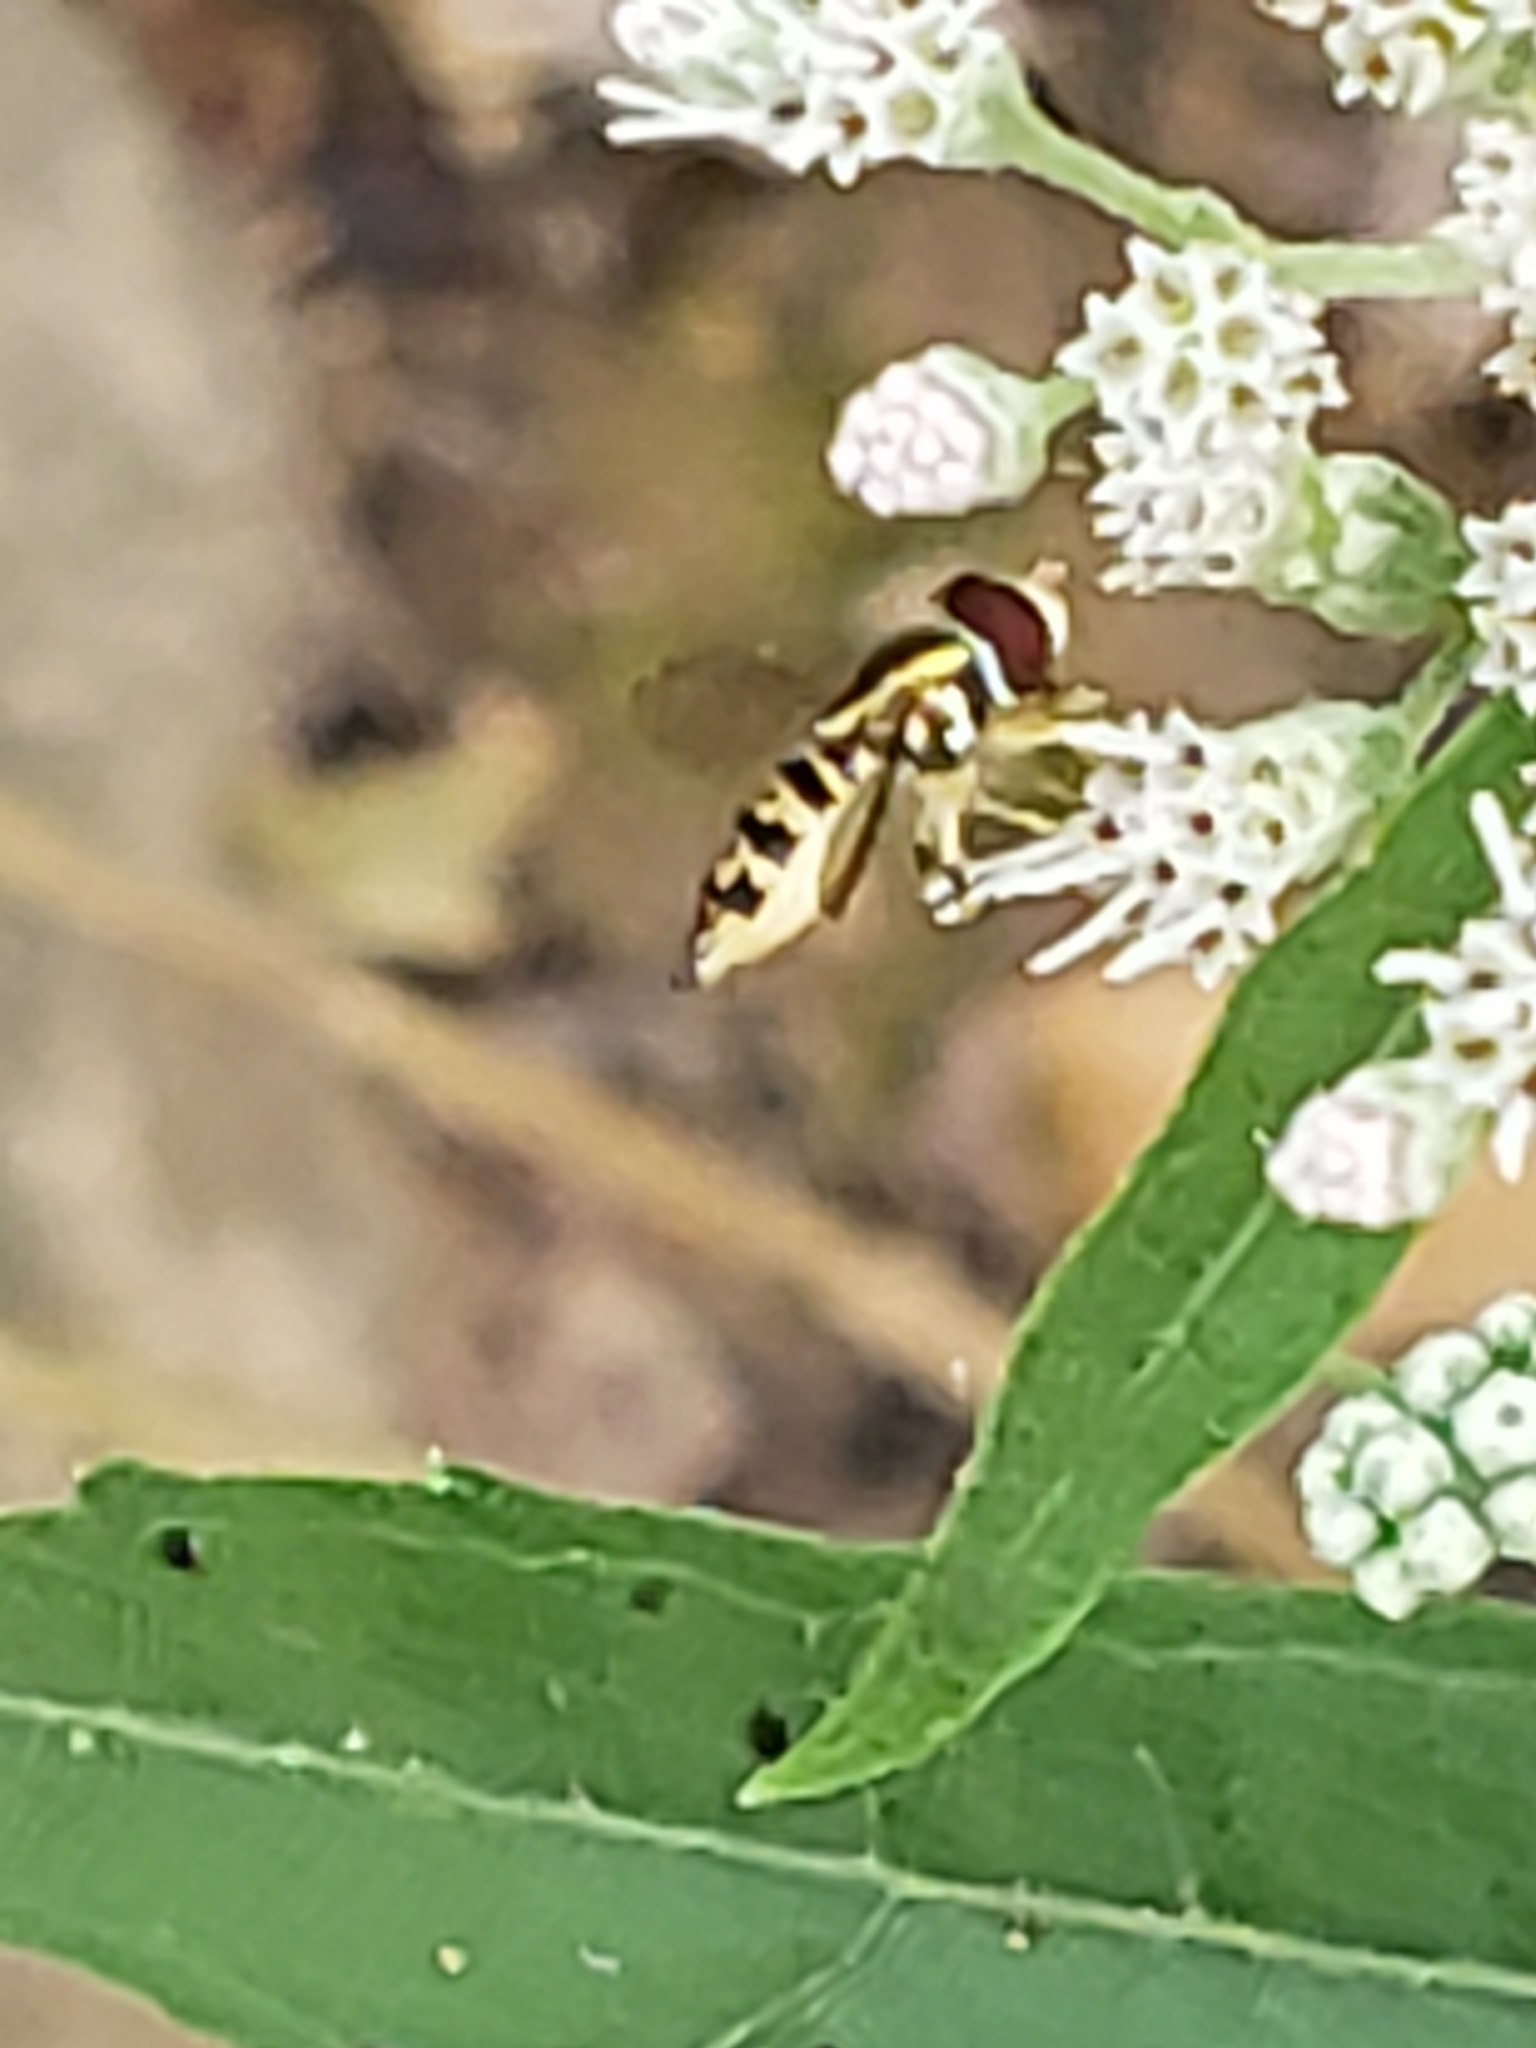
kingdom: Animalia
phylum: Arthropoda
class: Insecta
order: Diptera
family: Syrphidae
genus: Toxomerus
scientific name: Toxomerus geminatus
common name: Eastern calligrapher
